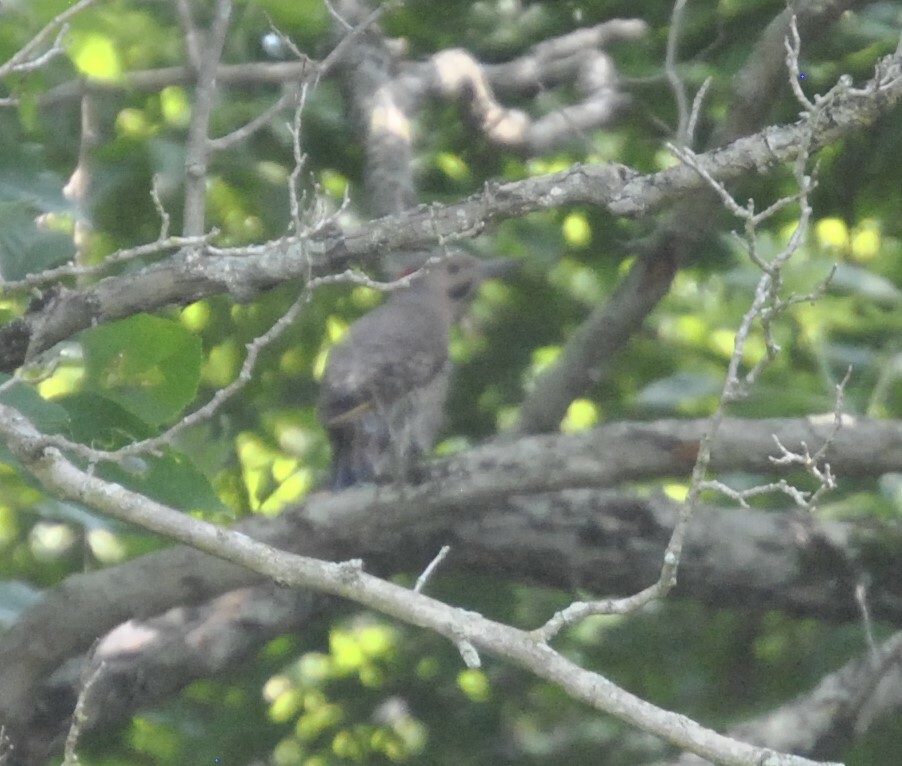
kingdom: Animalia
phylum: Chordata
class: Aves
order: Piciformes
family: Picidae
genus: Colaptes
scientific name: Colaptes auratus
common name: Northern flicker
